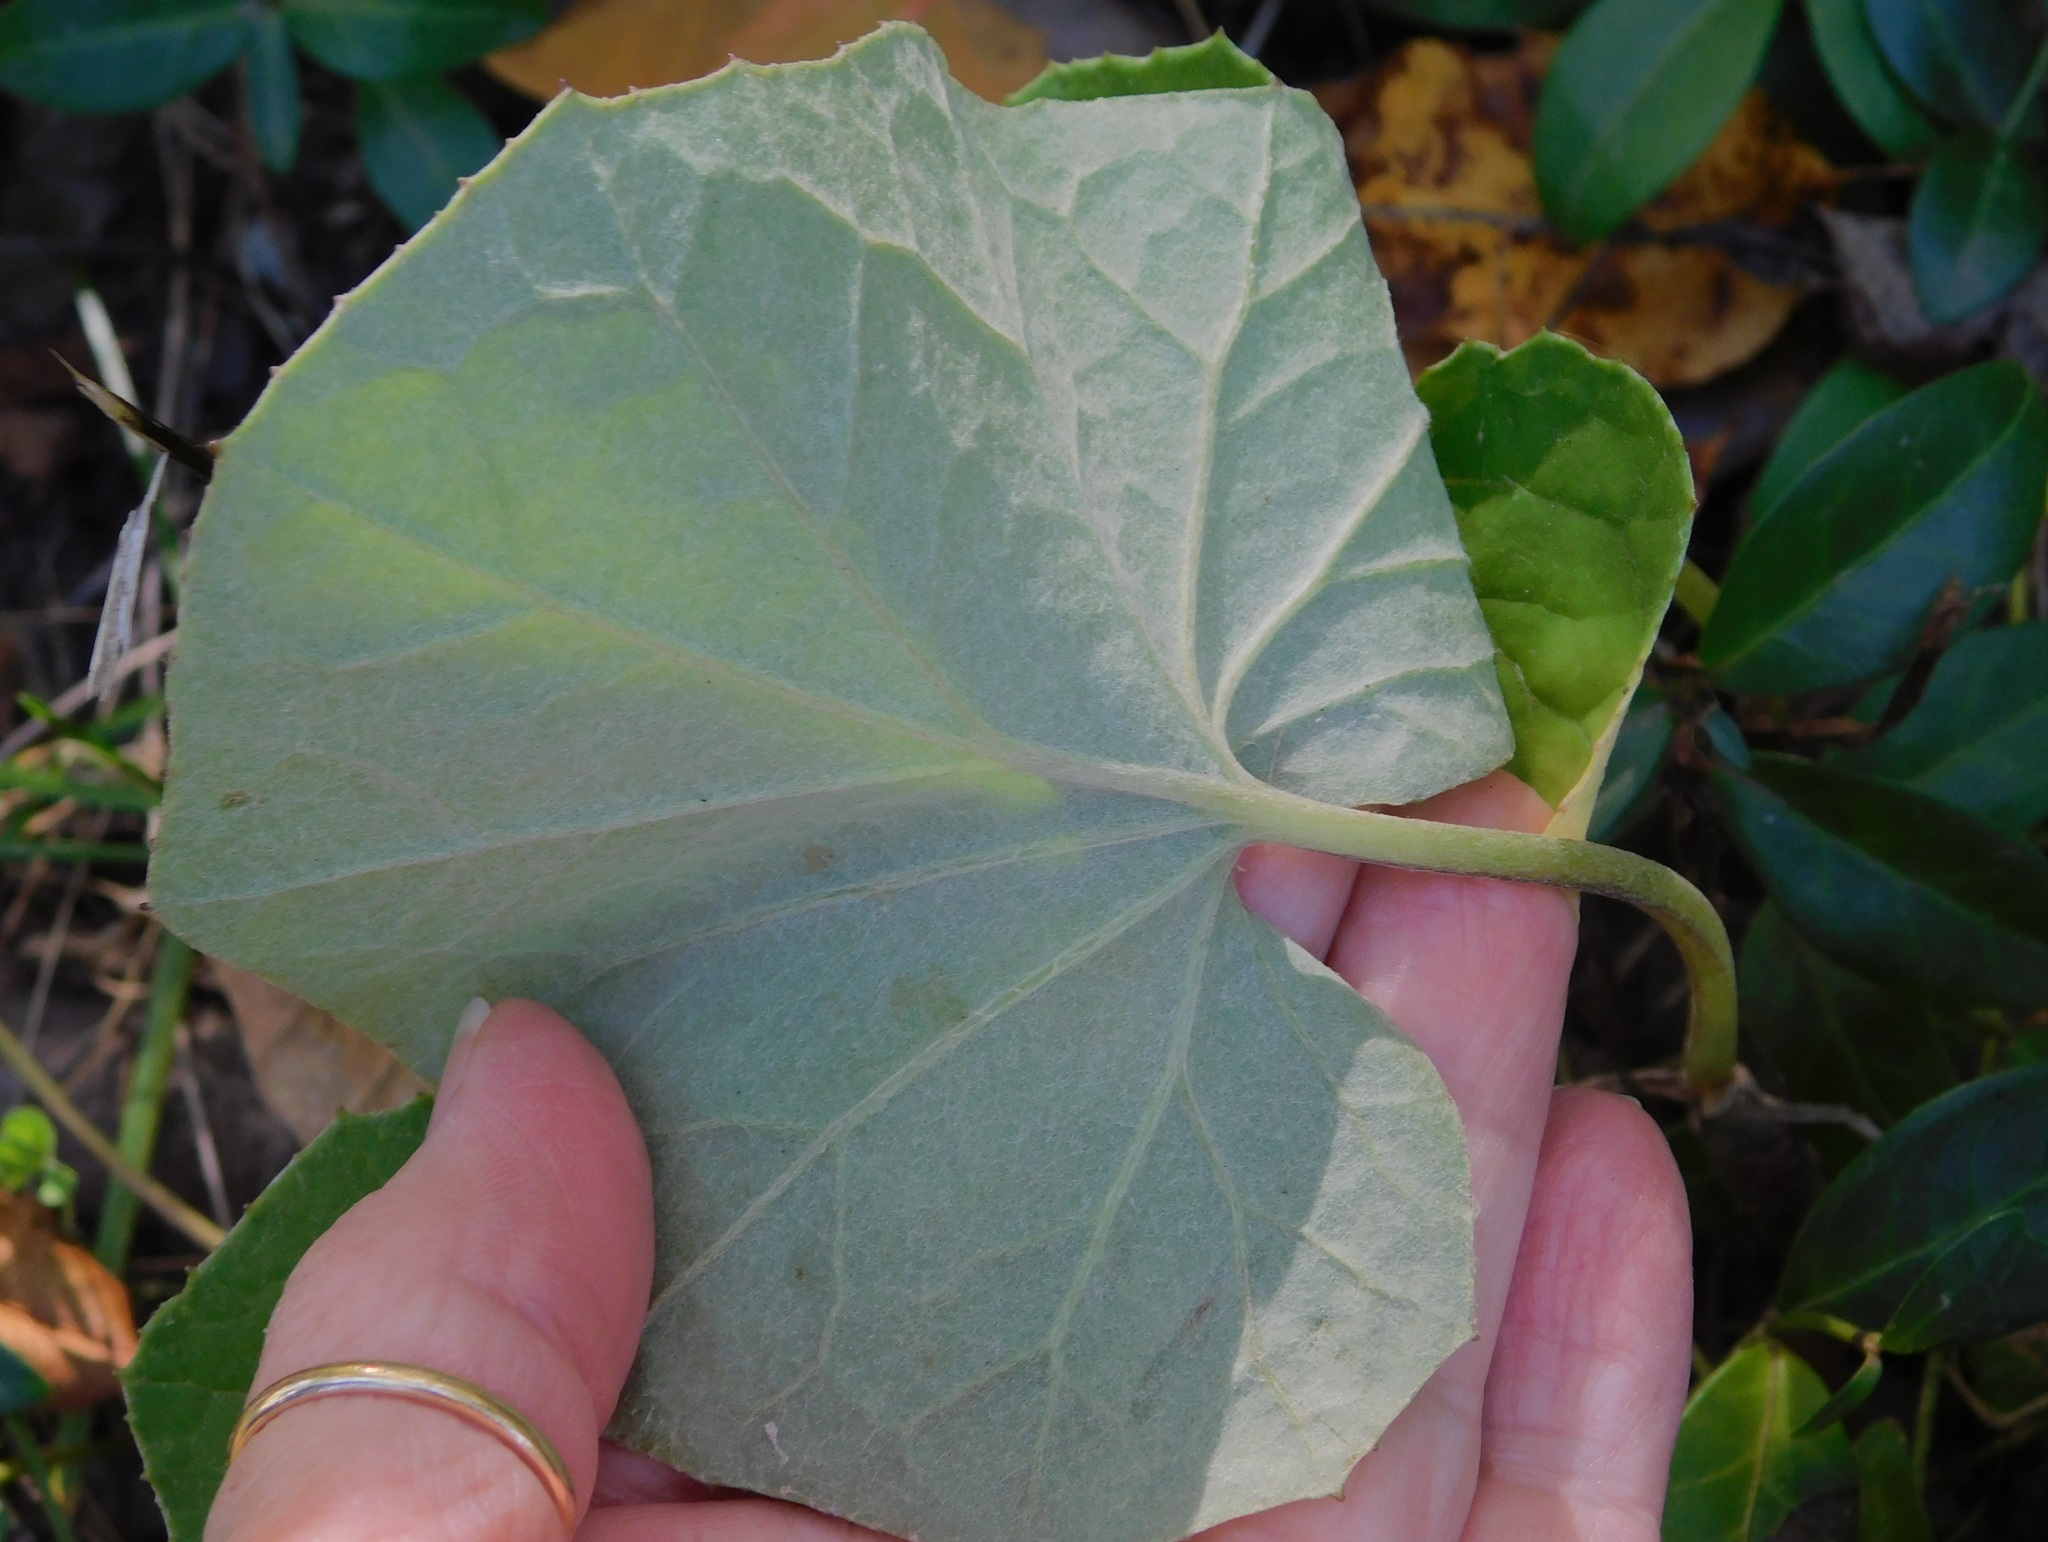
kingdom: Plantae
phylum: Tracheophyta
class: Magnoliopsida
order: Asterales
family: Asteraceae
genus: Tussilago
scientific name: Tussilago farfara
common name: Coltsfoot
